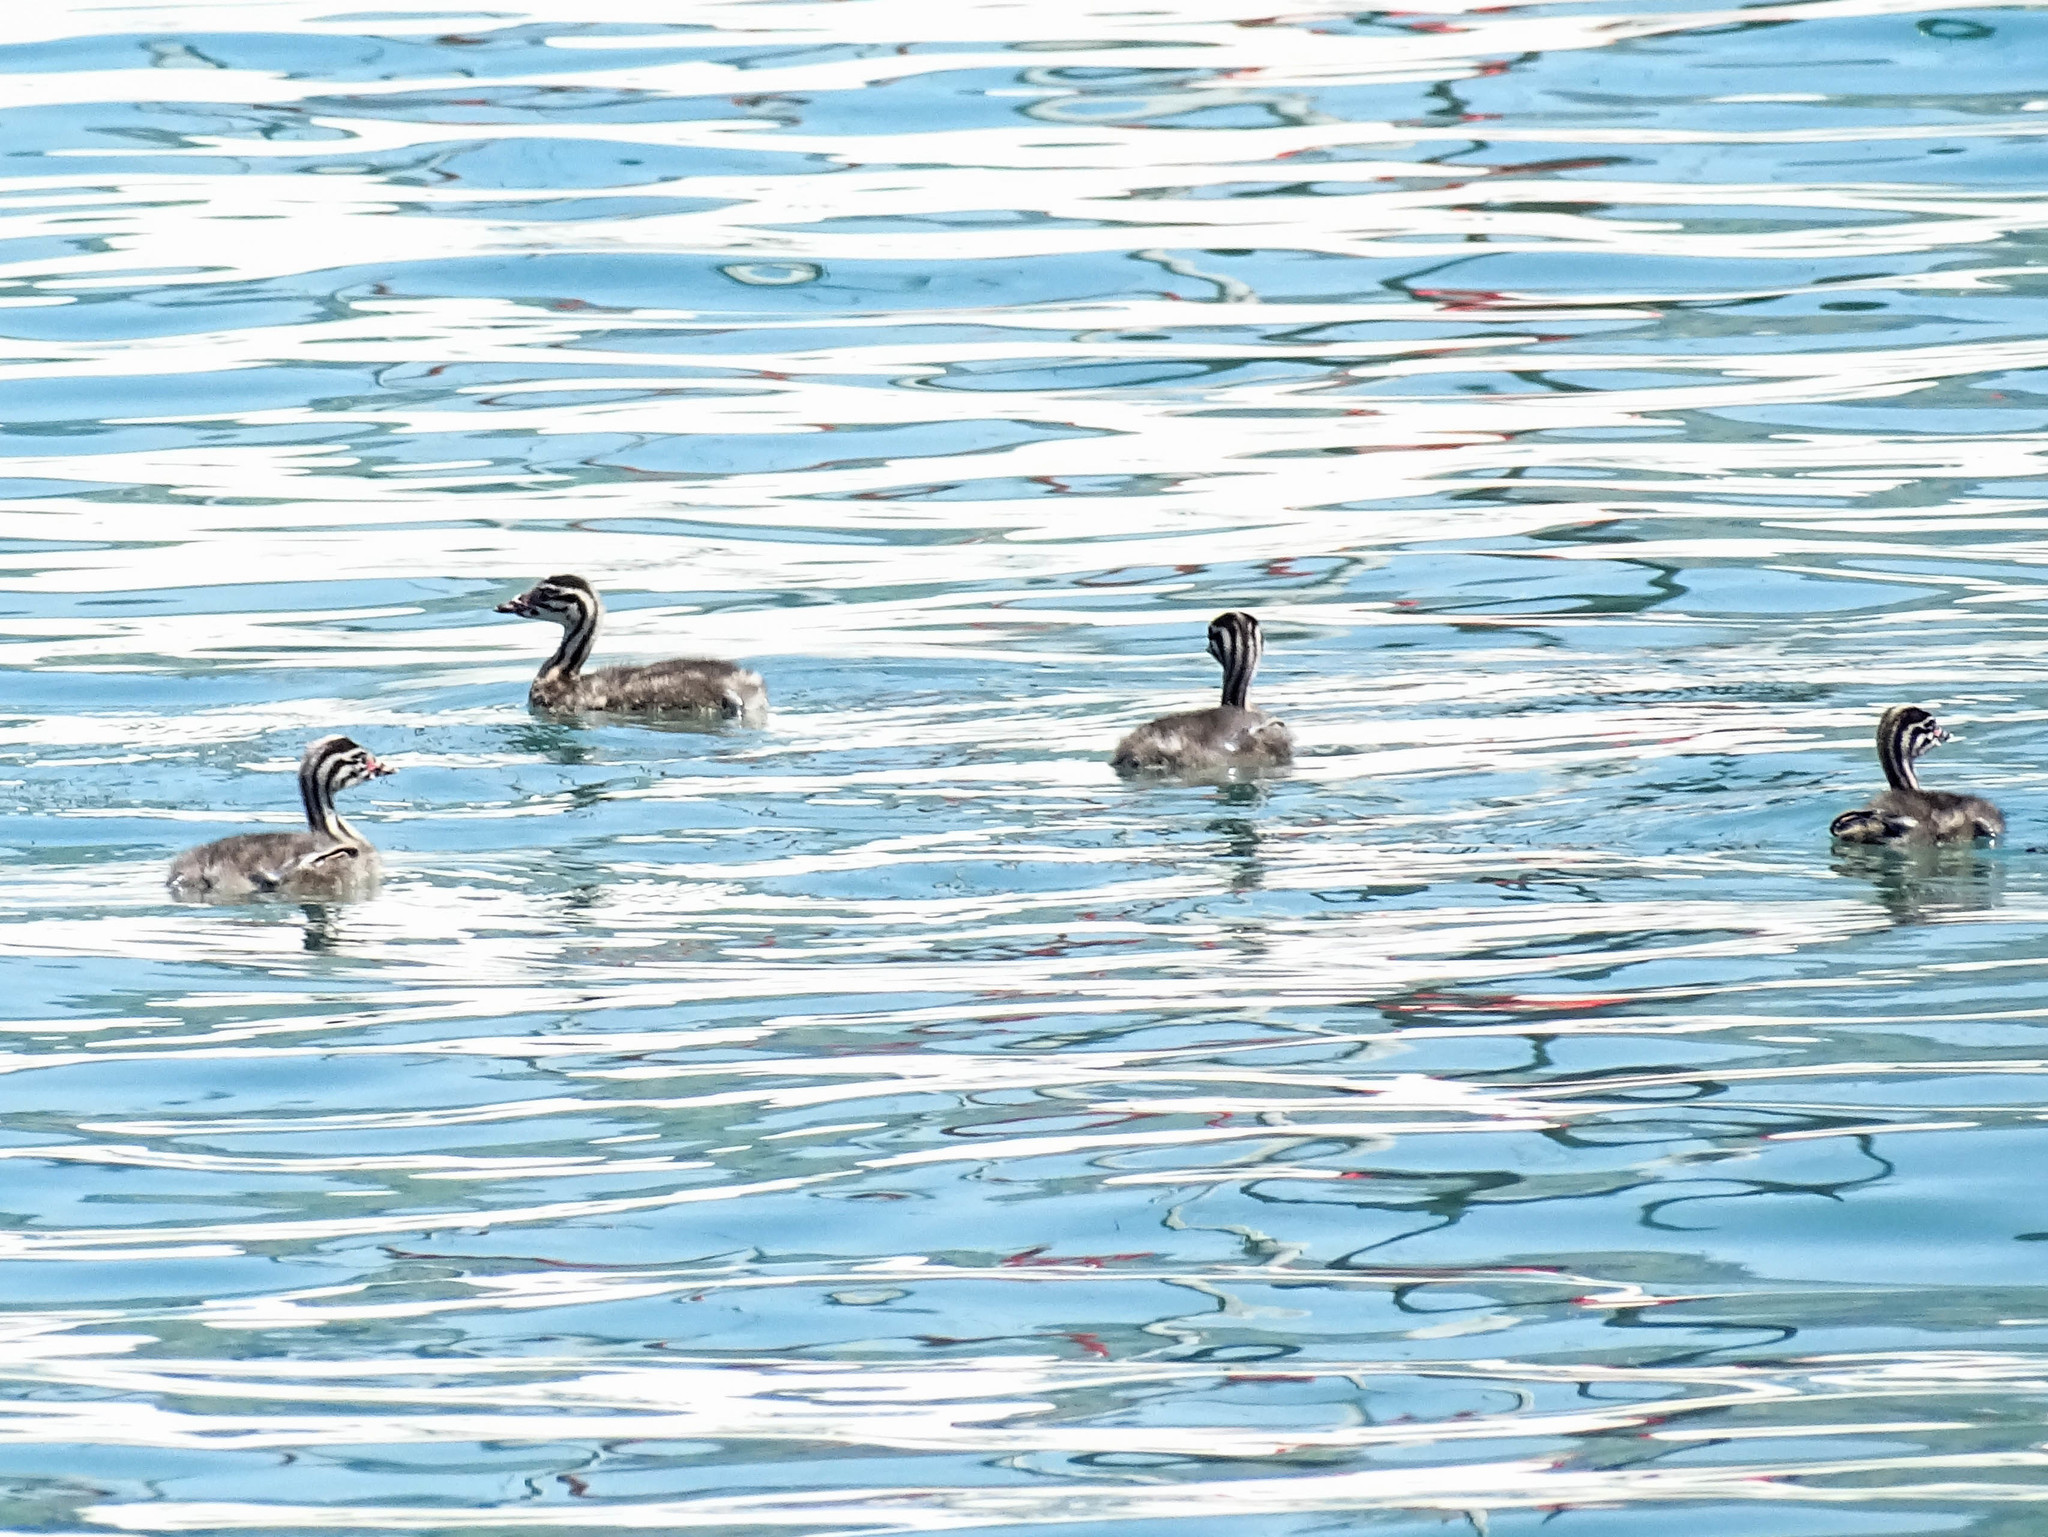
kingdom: Animalia
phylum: Chordata
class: Aves
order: Podicipediformes
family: Podicipedidae
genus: Podiceps
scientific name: Podiceps cristatus
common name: Great crested grebe
